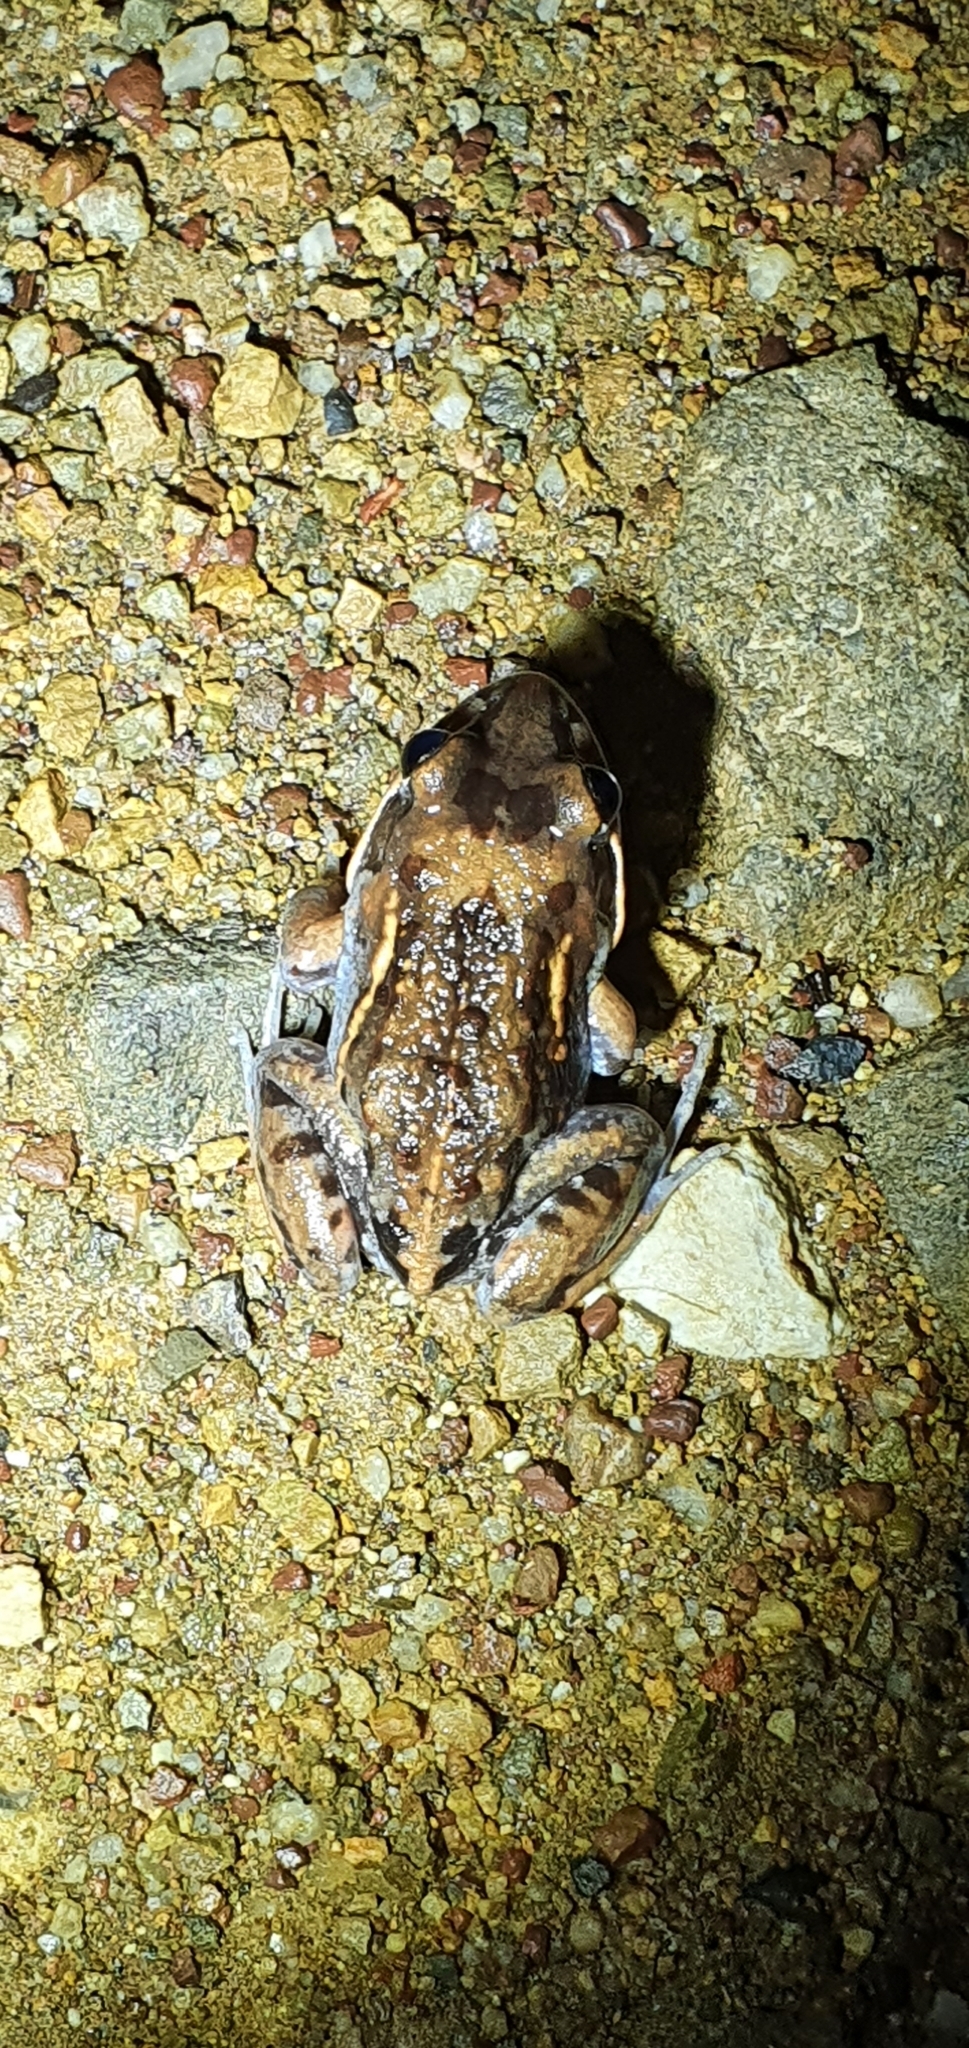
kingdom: Animalia
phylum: Chordata
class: Amphibia
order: Anura
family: Limnodynastidae
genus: Limnodynastes
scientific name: Limnodynastes salmini
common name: Salmon-striped frog
